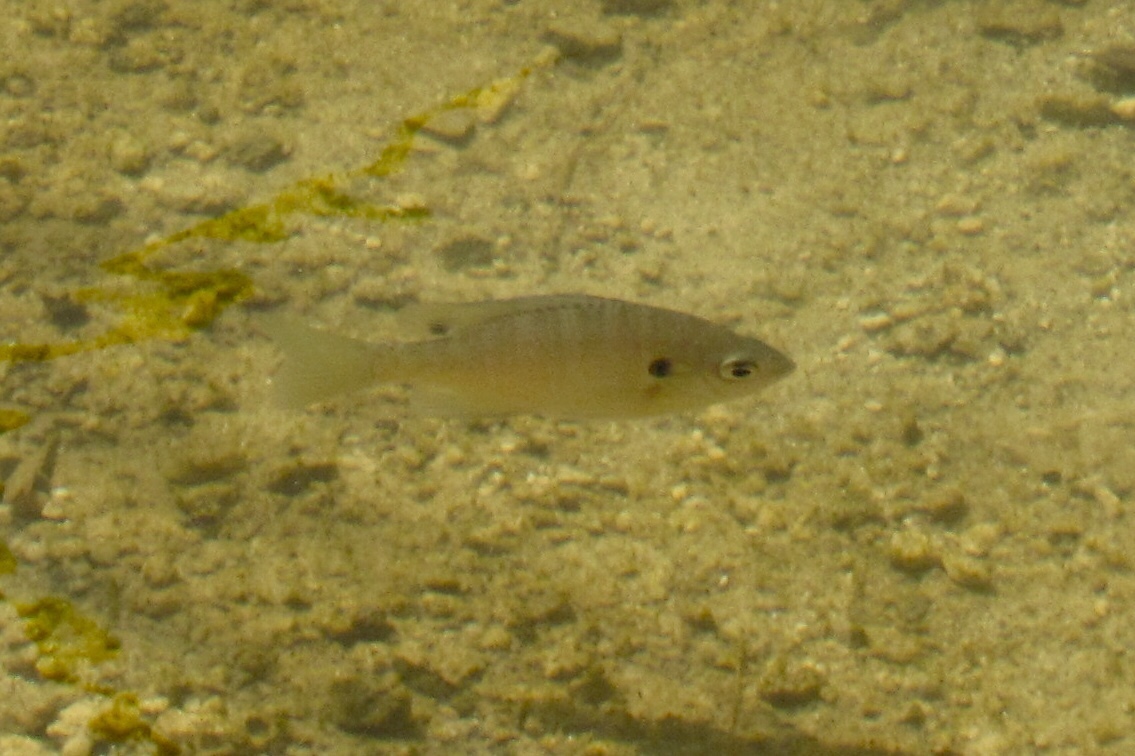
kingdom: Animalia
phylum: Chordata
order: Perciformes
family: Centrarchidae
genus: Lepomis
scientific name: Lepomis macrochirus
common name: Bluegill
